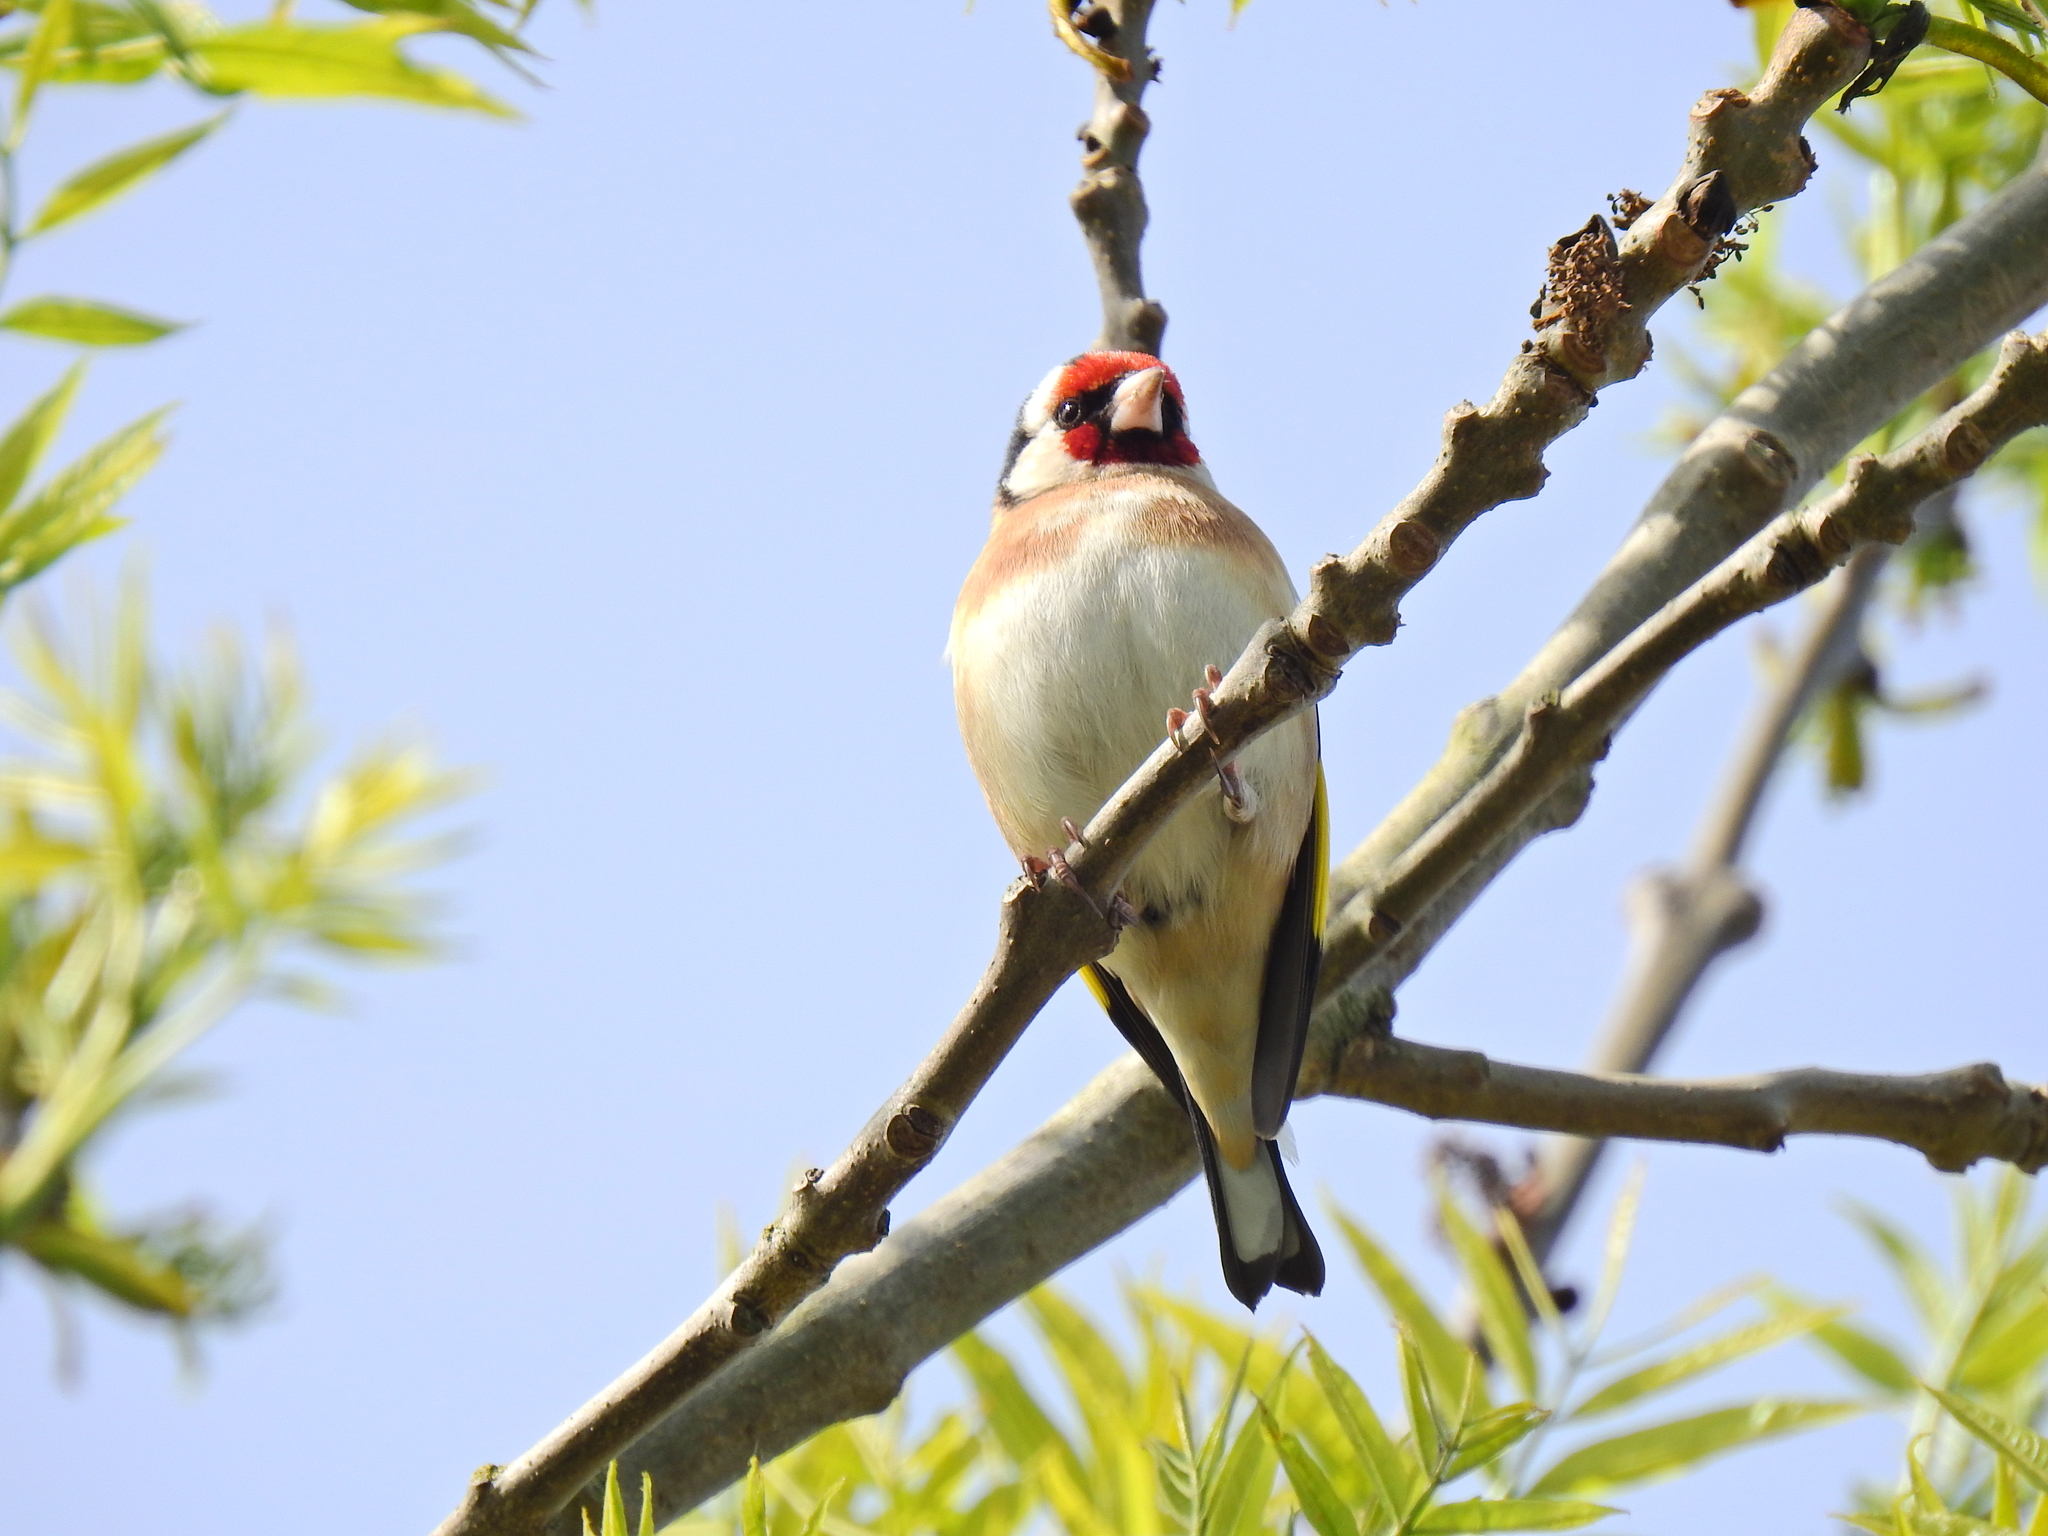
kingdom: Animalia
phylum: Chordata
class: Aves
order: Passeriformes
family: Fringillidae
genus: Carduelis
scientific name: Carduelis carduelis
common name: European goldfinch
